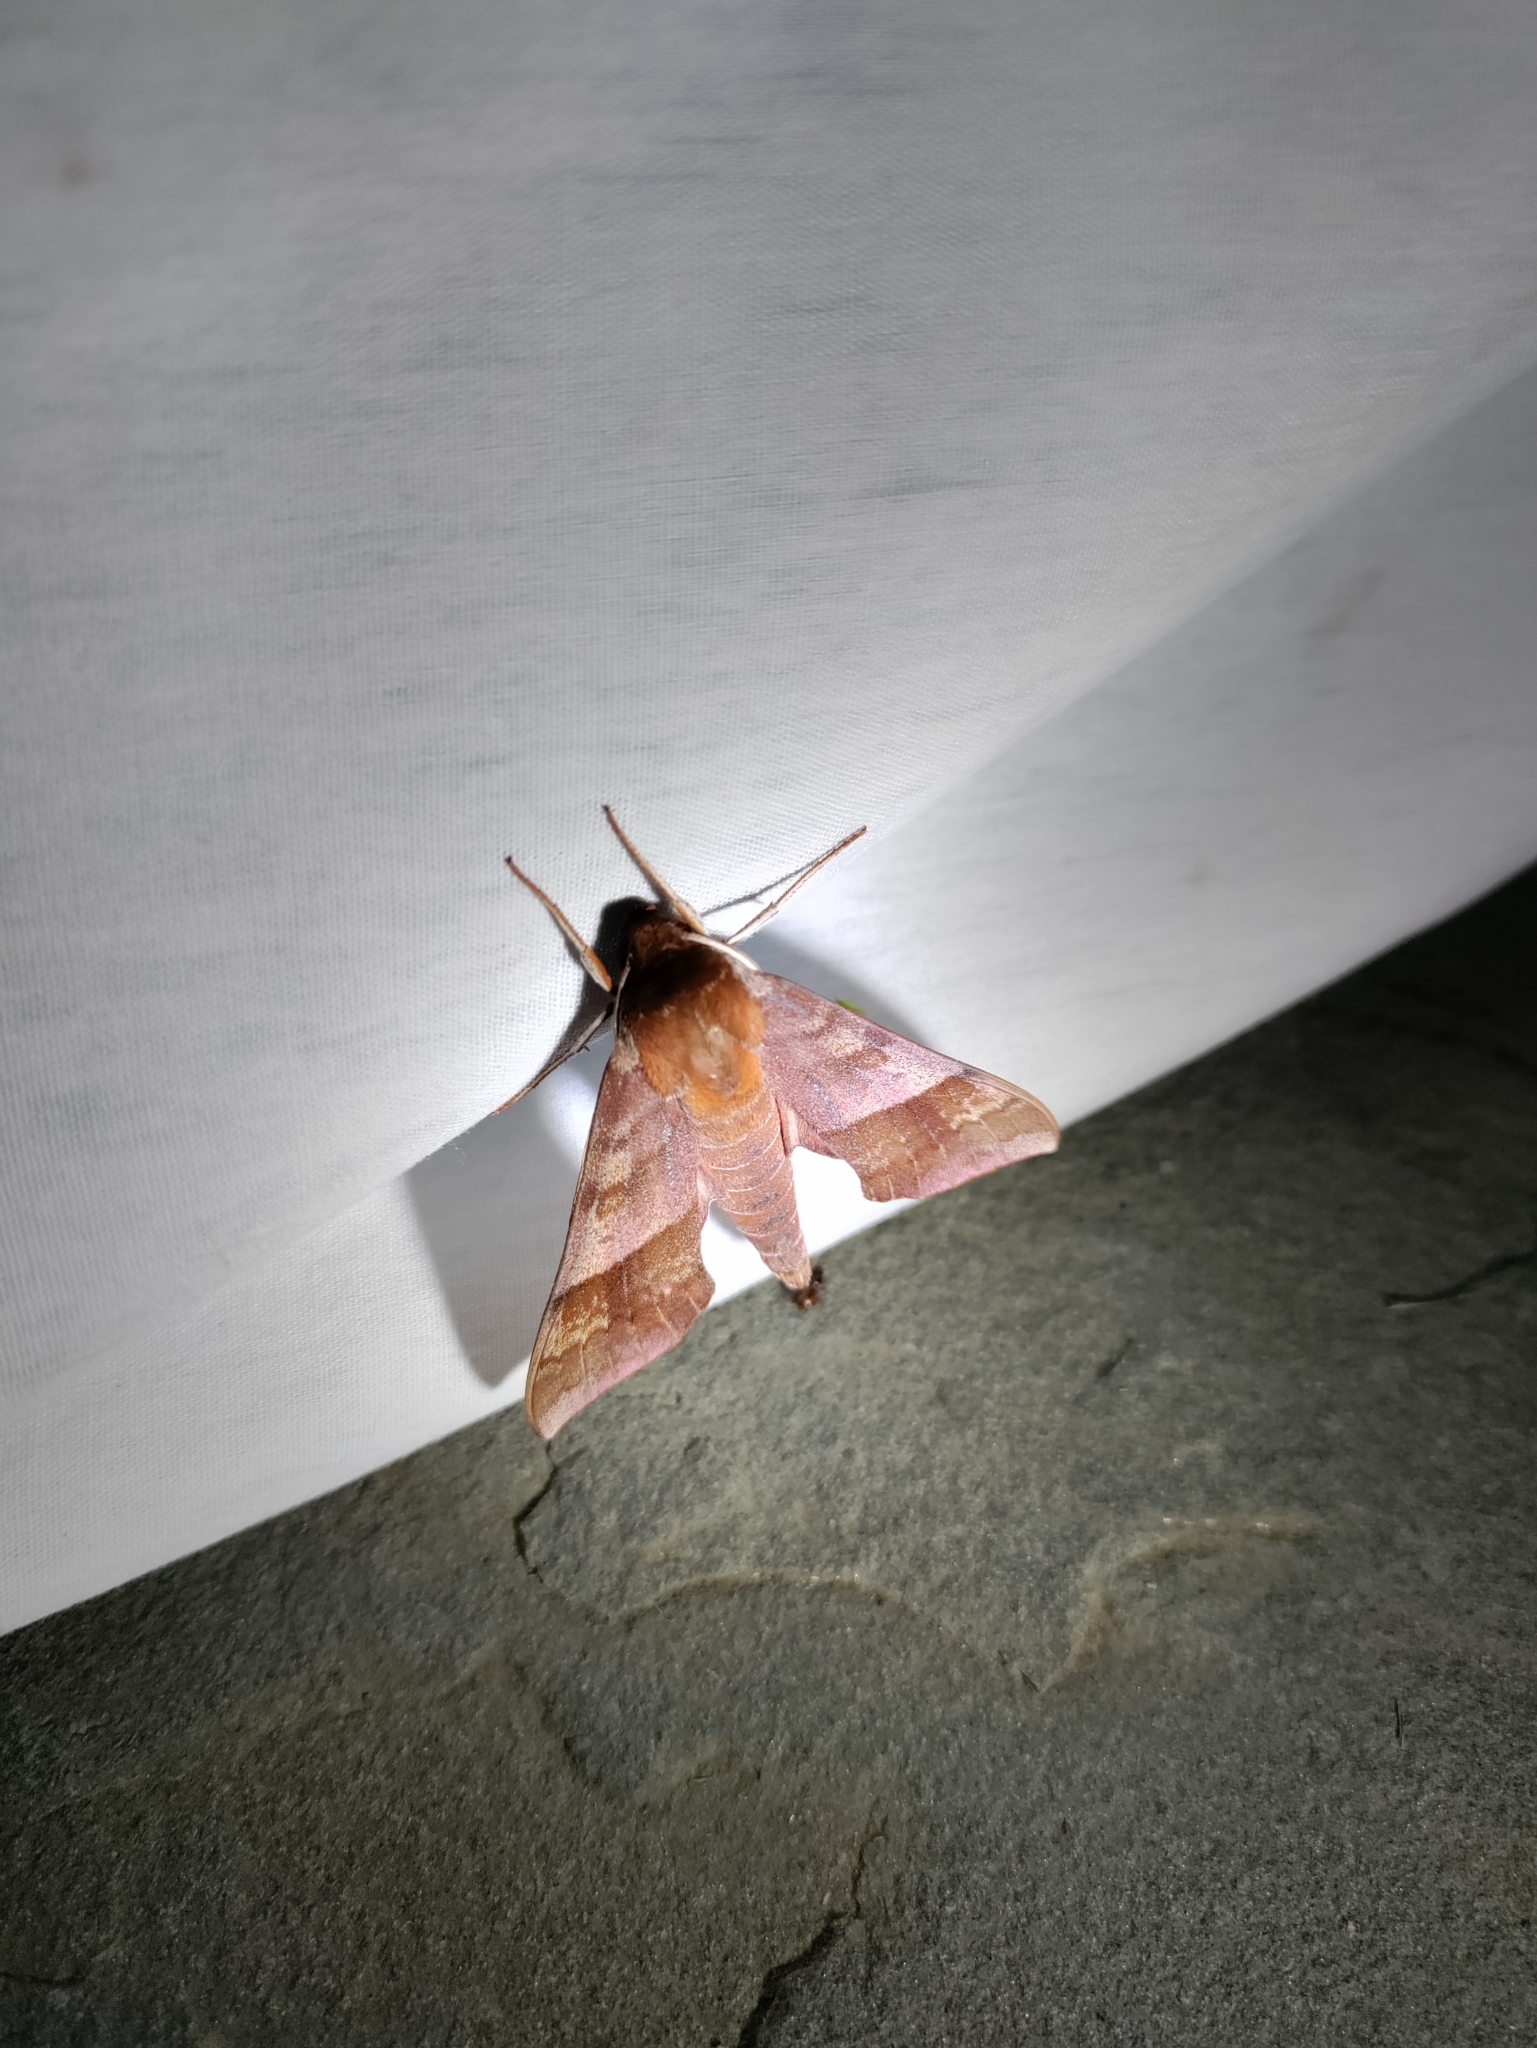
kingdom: Animalia
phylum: Arthropoda
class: Insecta
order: Lepidoptera
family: Sphingidae
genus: Darapsa
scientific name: Darapsa choerilus
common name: Azalea sphinx
